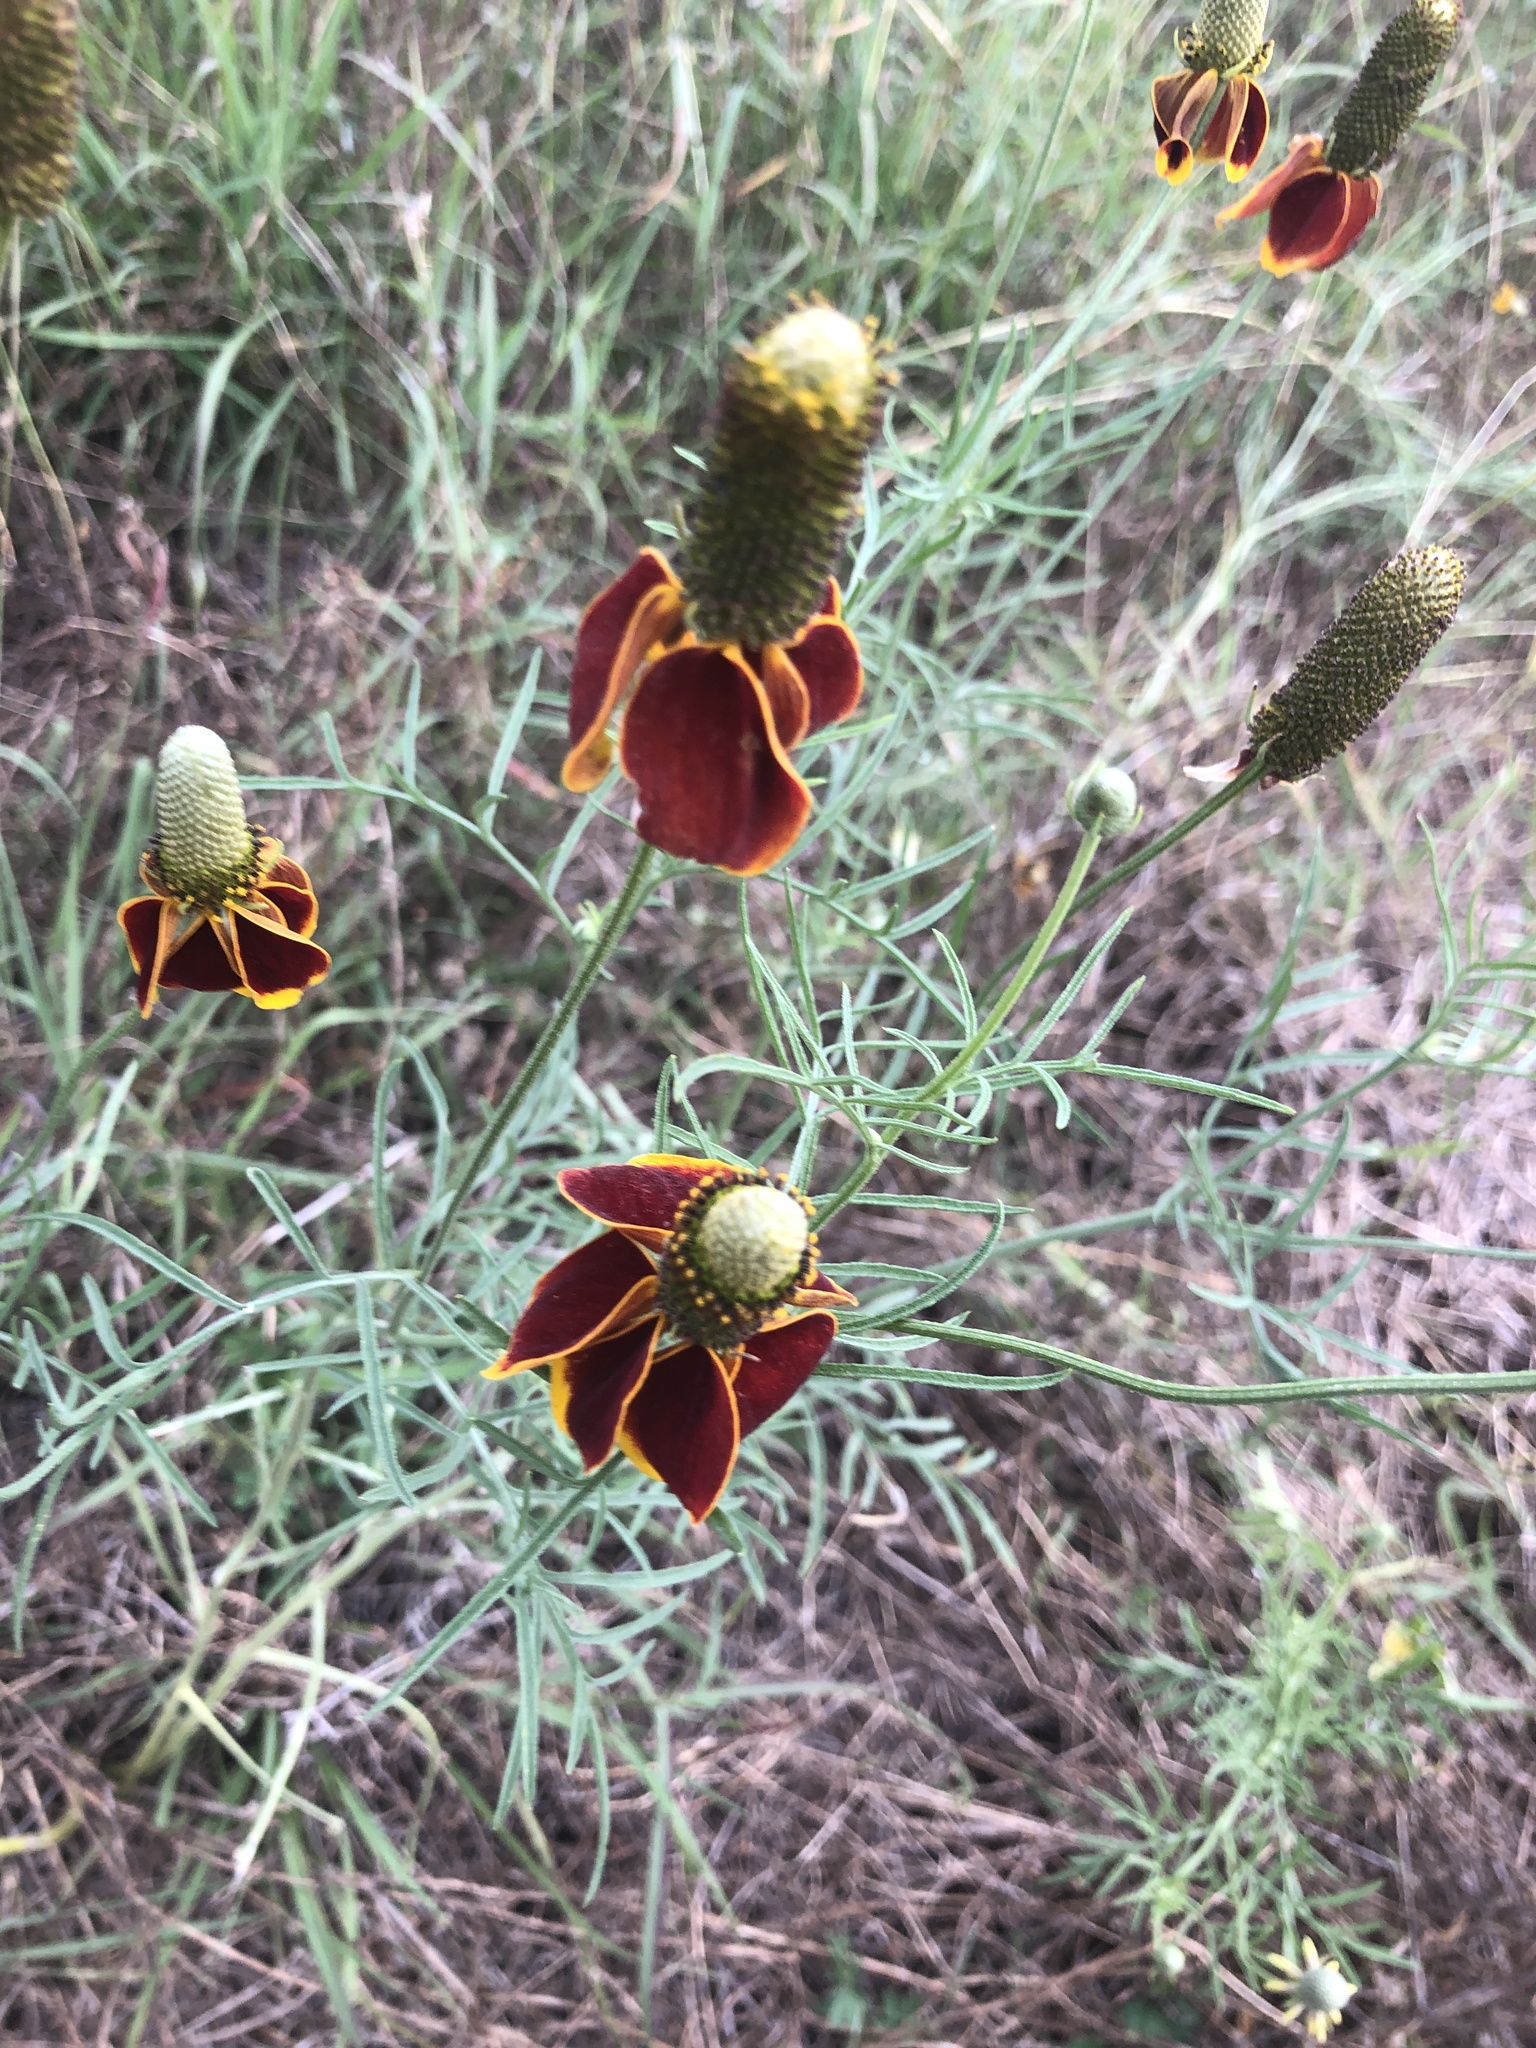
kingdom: Plantae
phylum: Tracheophyta
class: Magnoliopsida
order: Asterales
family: Asteraceae
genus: Ratibida
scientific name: Ratibida columnifera
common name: Prairie coneflower
